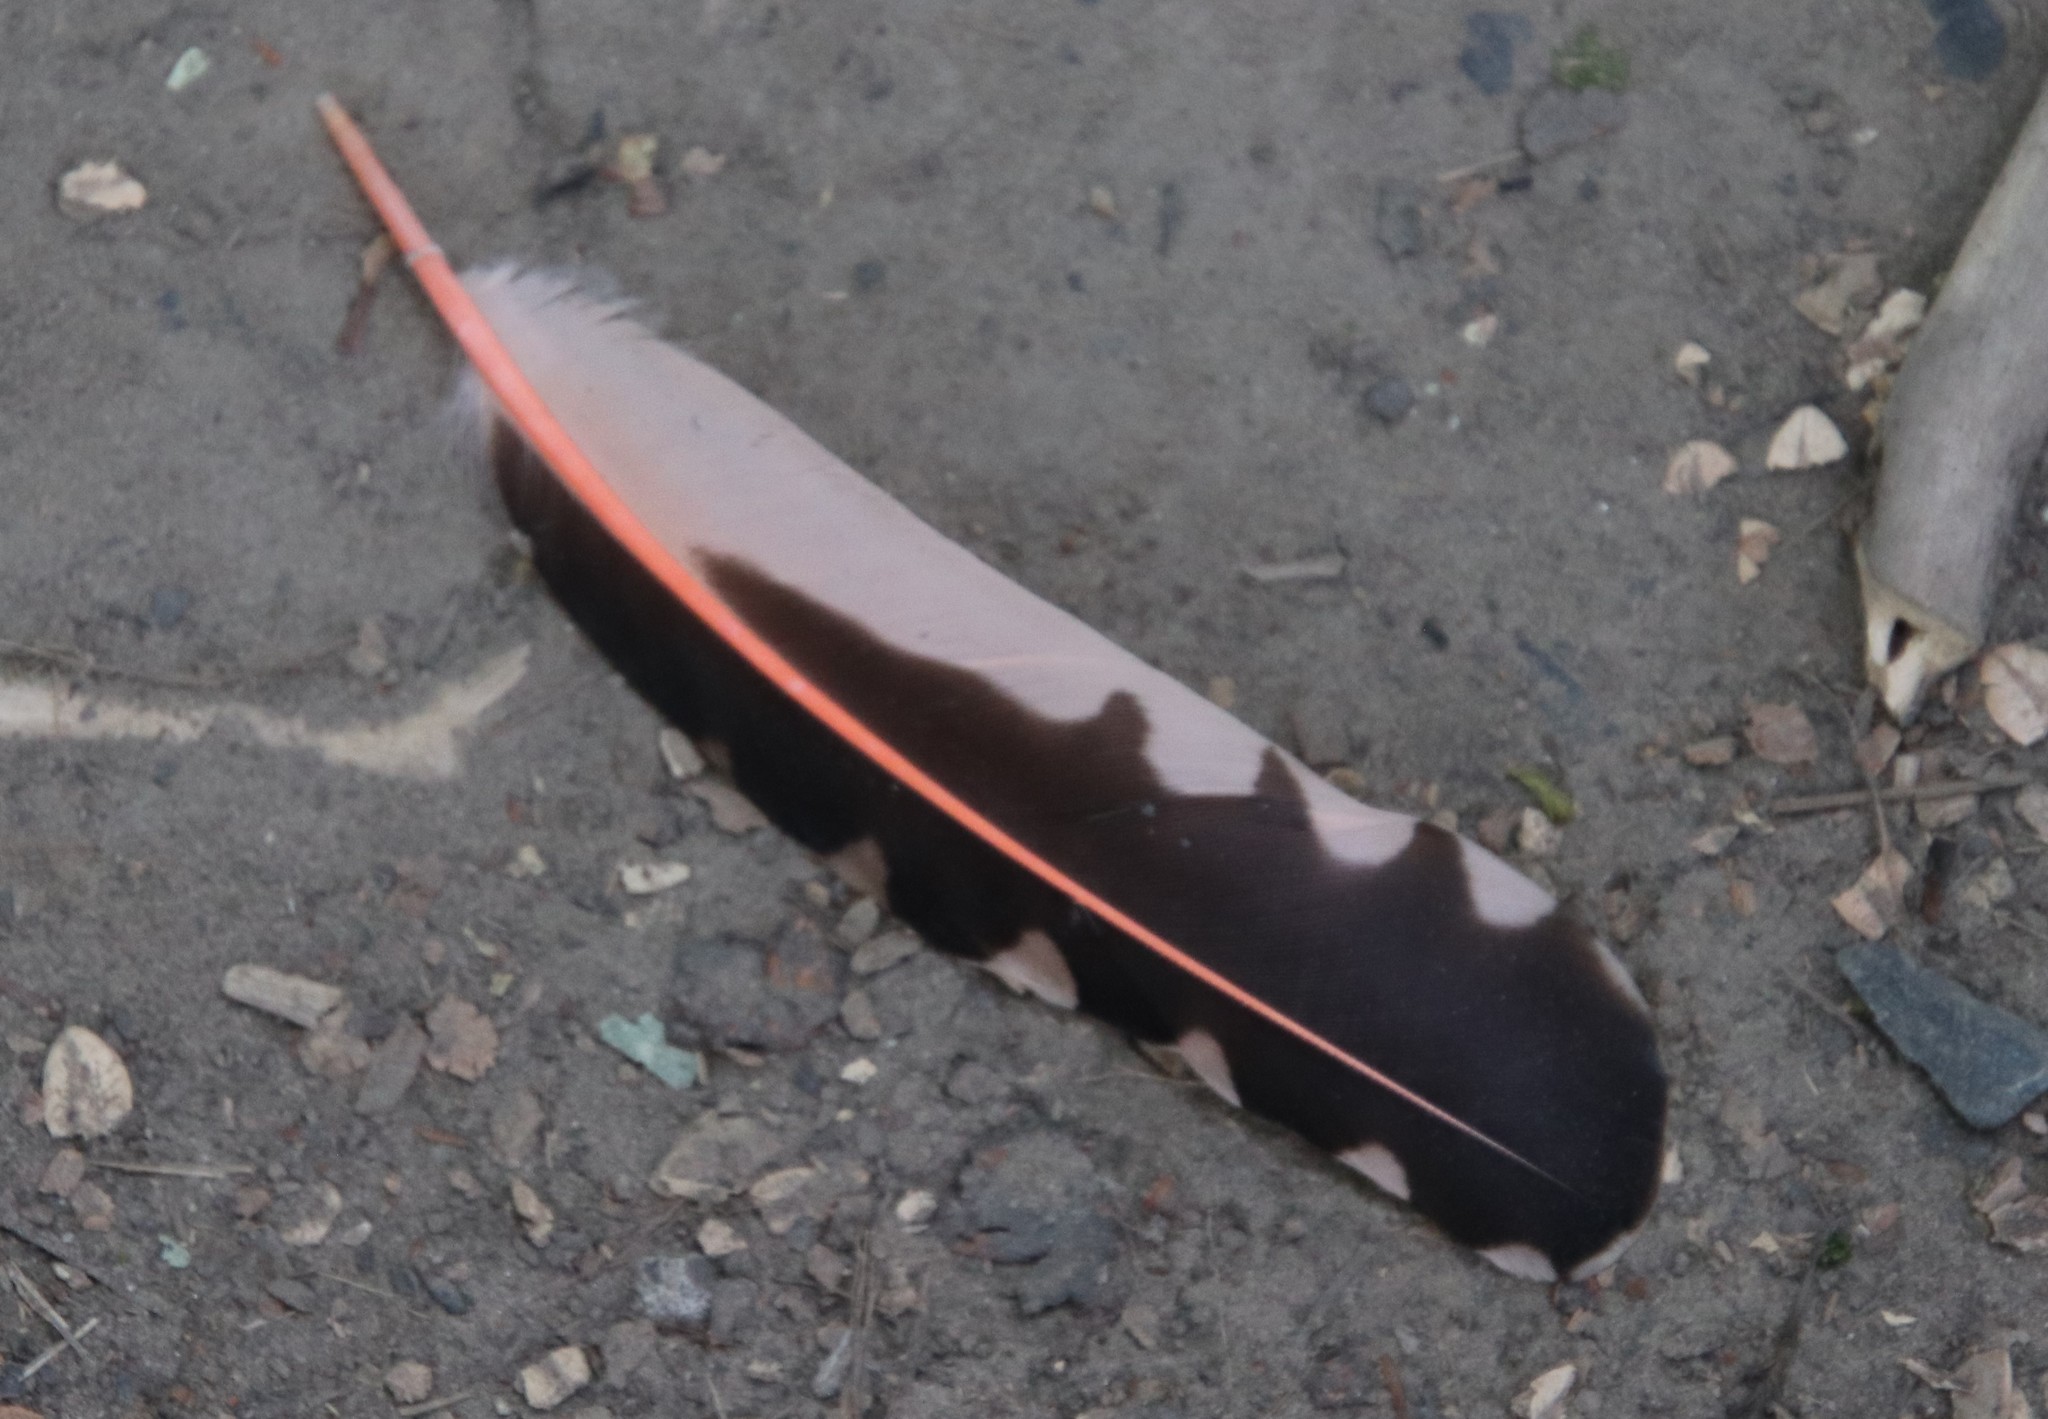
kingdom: Animalia
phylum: Chordata
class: Aves
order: Piciformes
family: Picidae
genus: Colaptes
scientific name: Colaptes auratus
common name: Northern flicker
